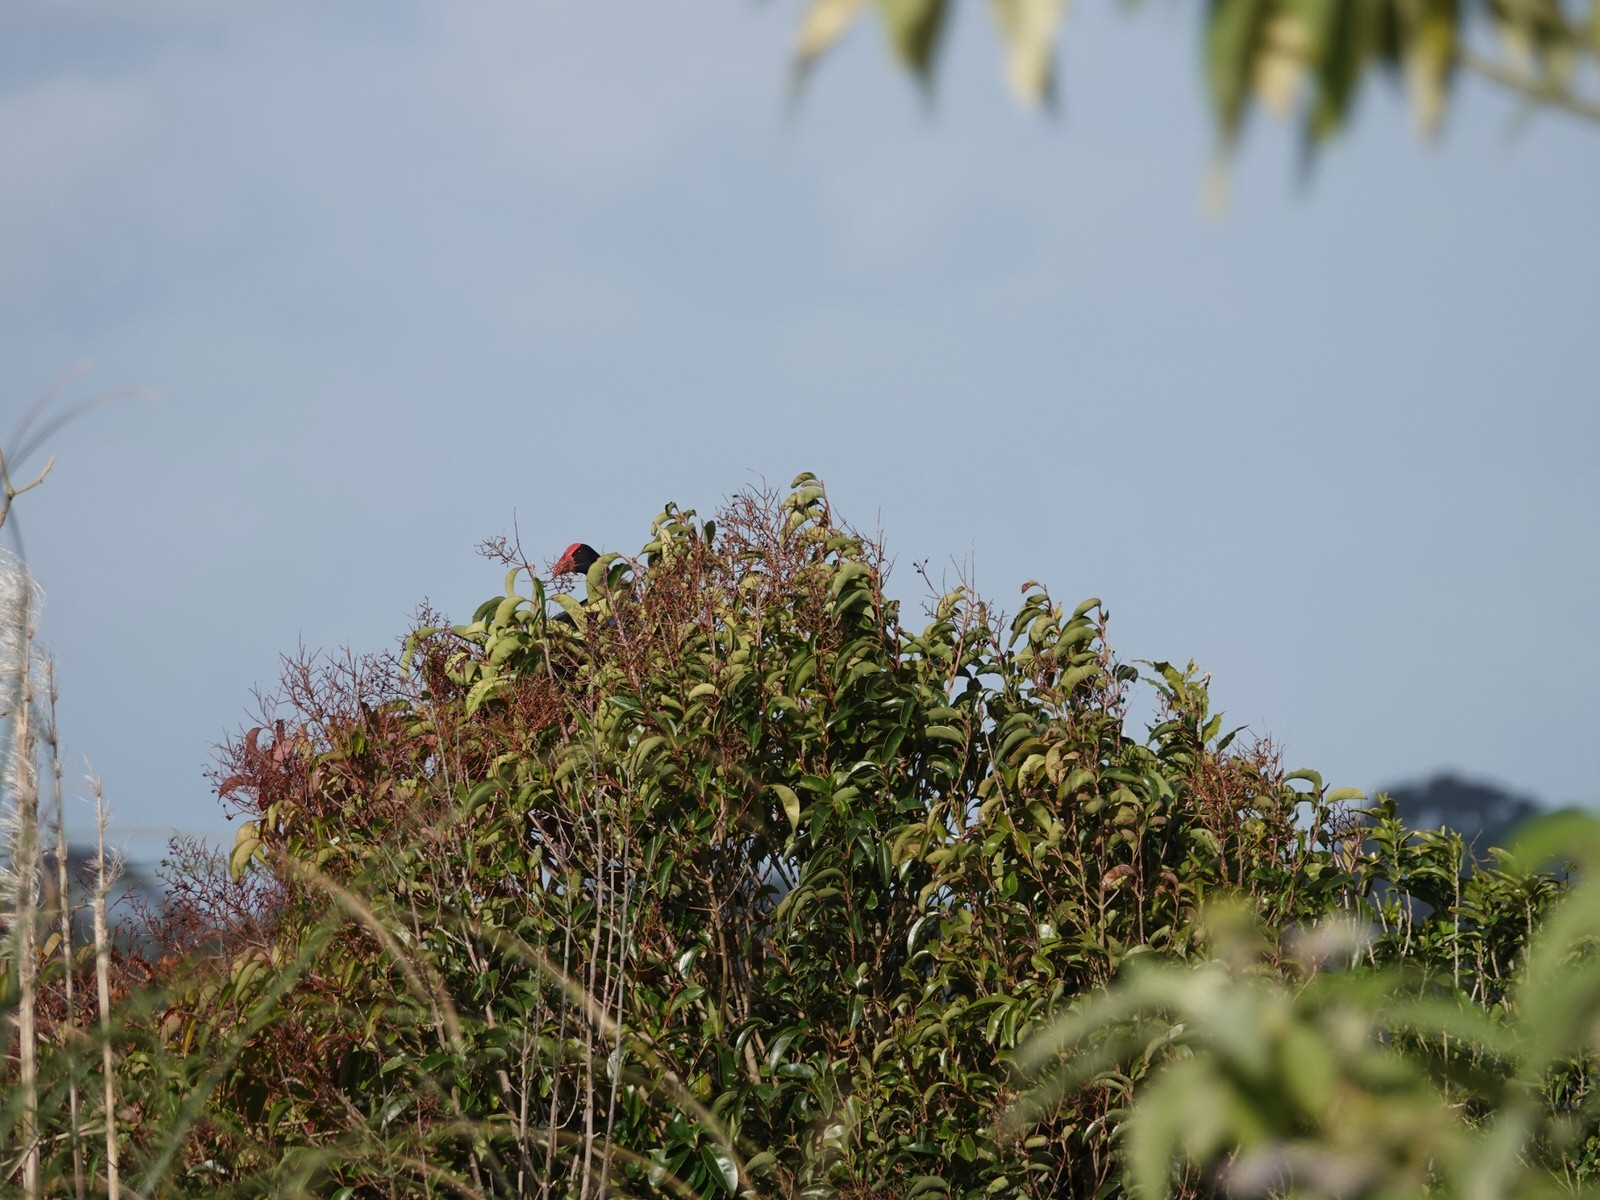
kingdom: Animalia
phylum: Chordata
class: Aves
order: Gruiformes
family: Rallidae
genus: Porphyrio
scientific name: Porphyrio melanotus
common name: Australasian swamphen
